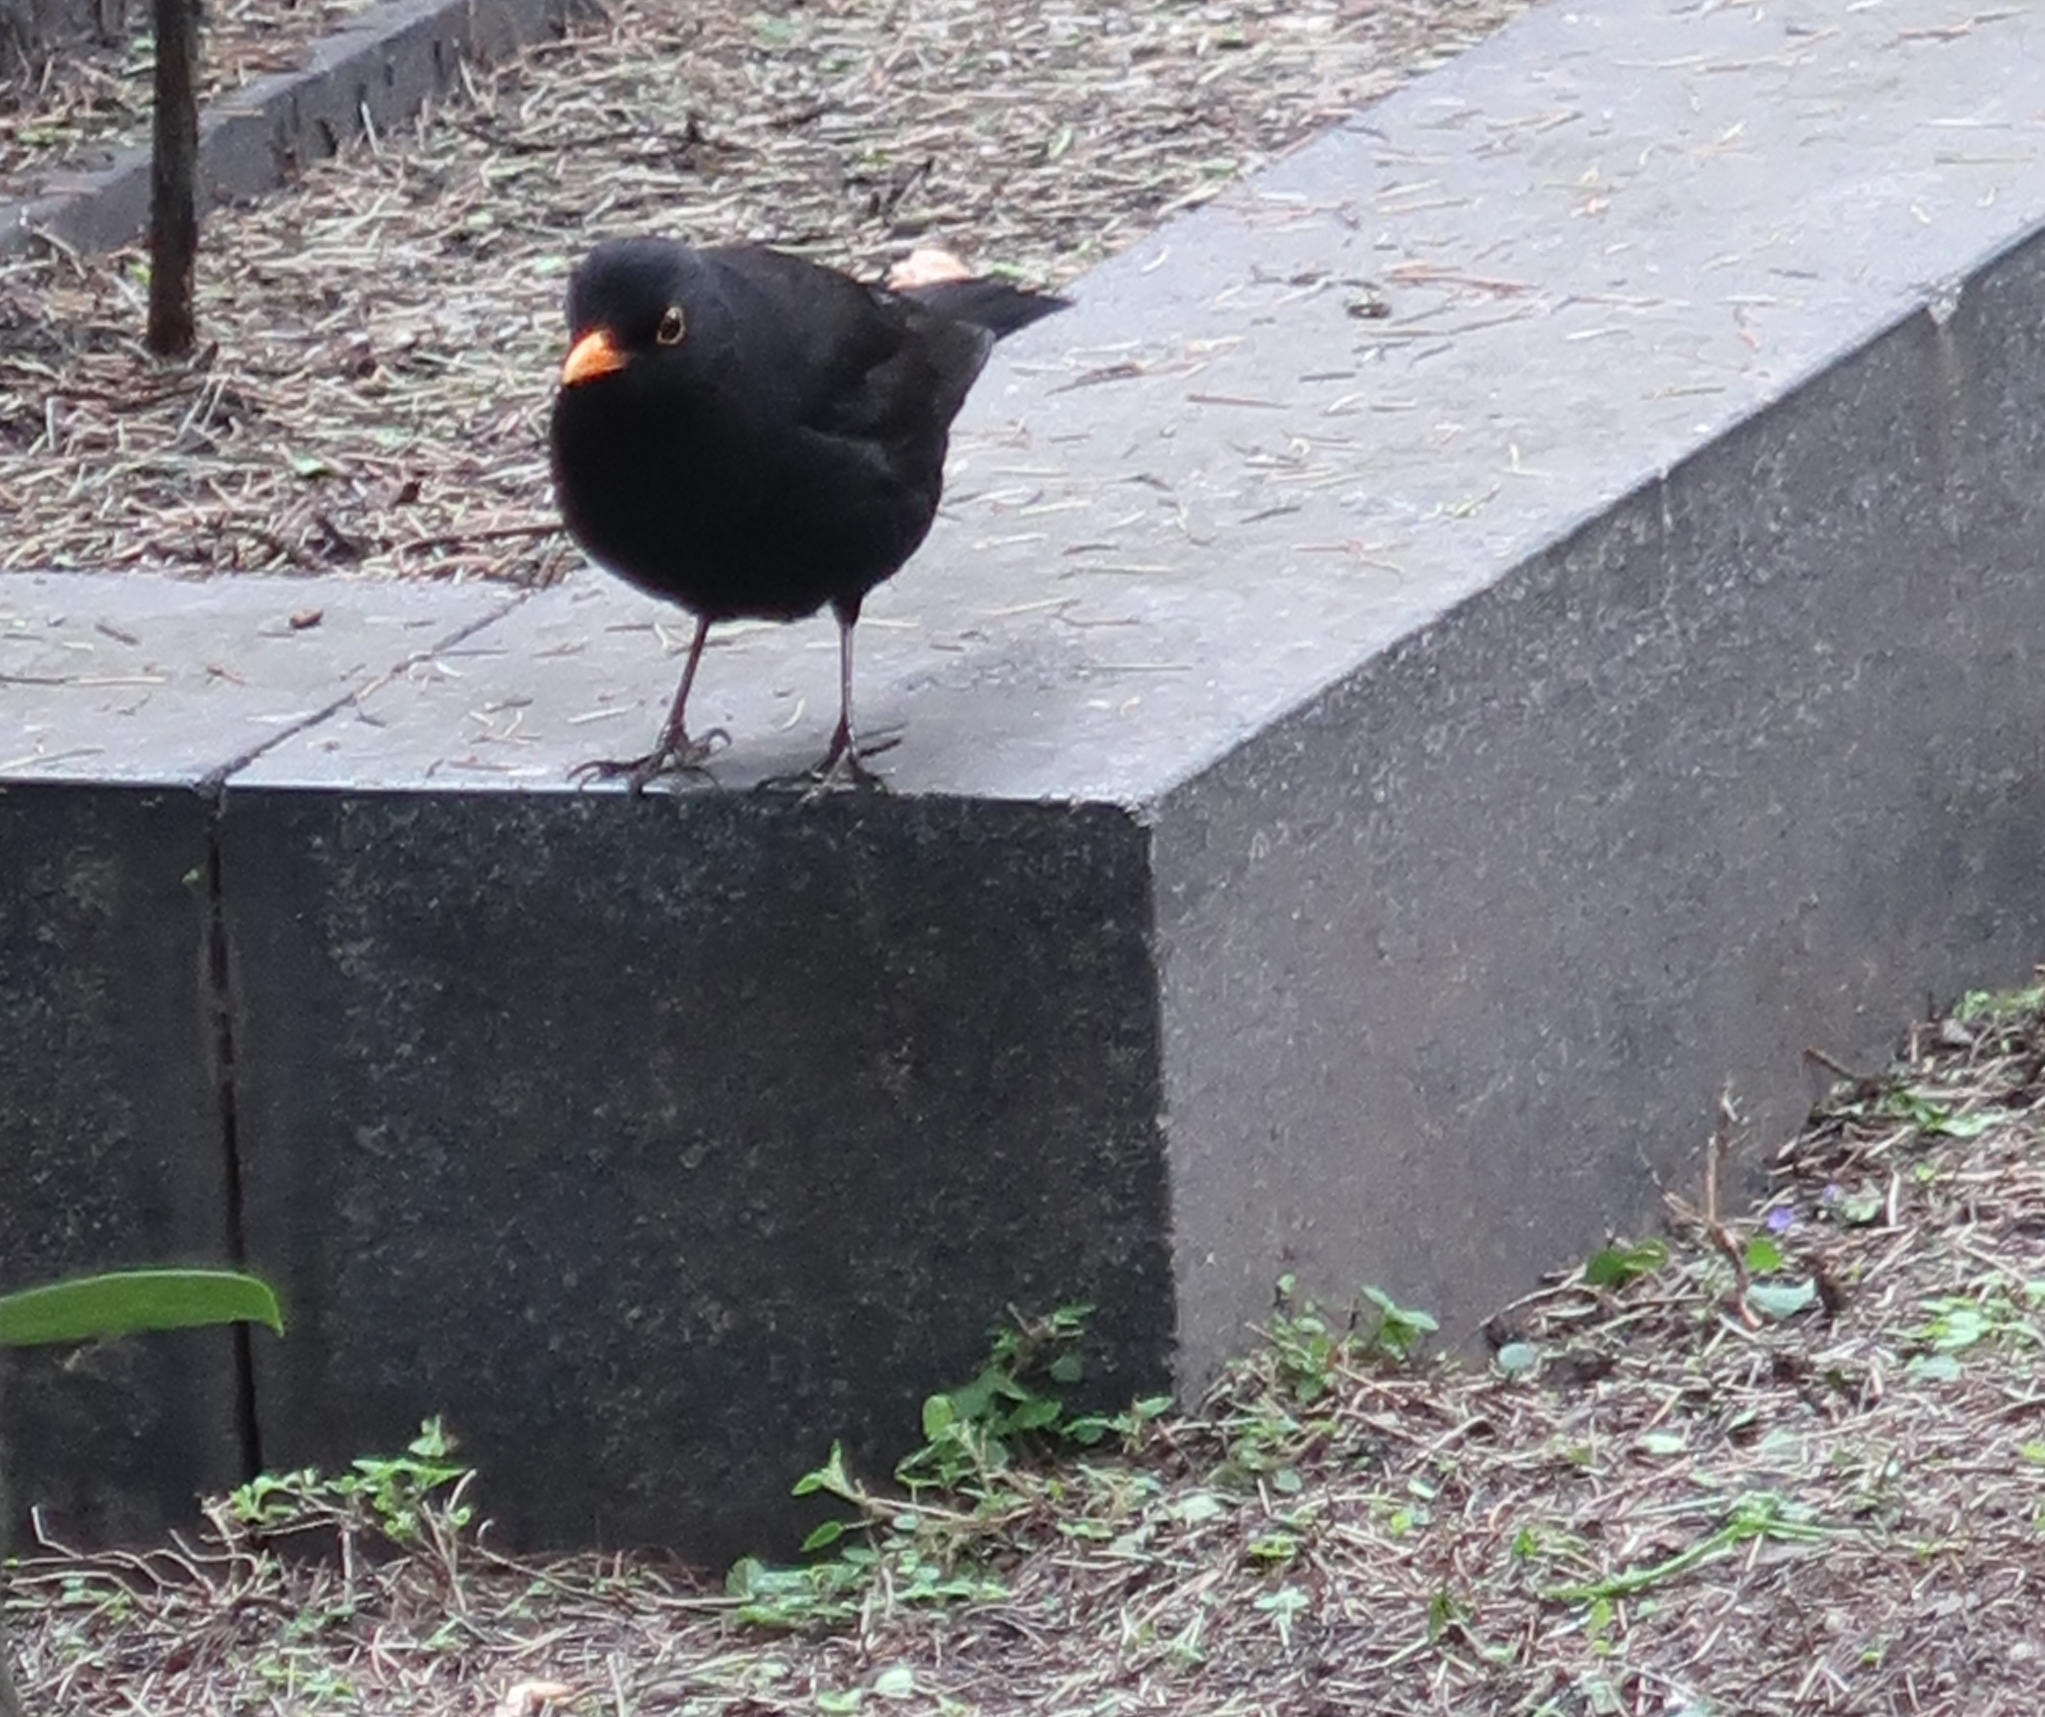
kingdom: Animalia
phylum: Chordata
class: Aves
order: Passeriformes
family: Turdidae
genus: Turdus
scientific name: Turdus merula
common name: Common blackbird
